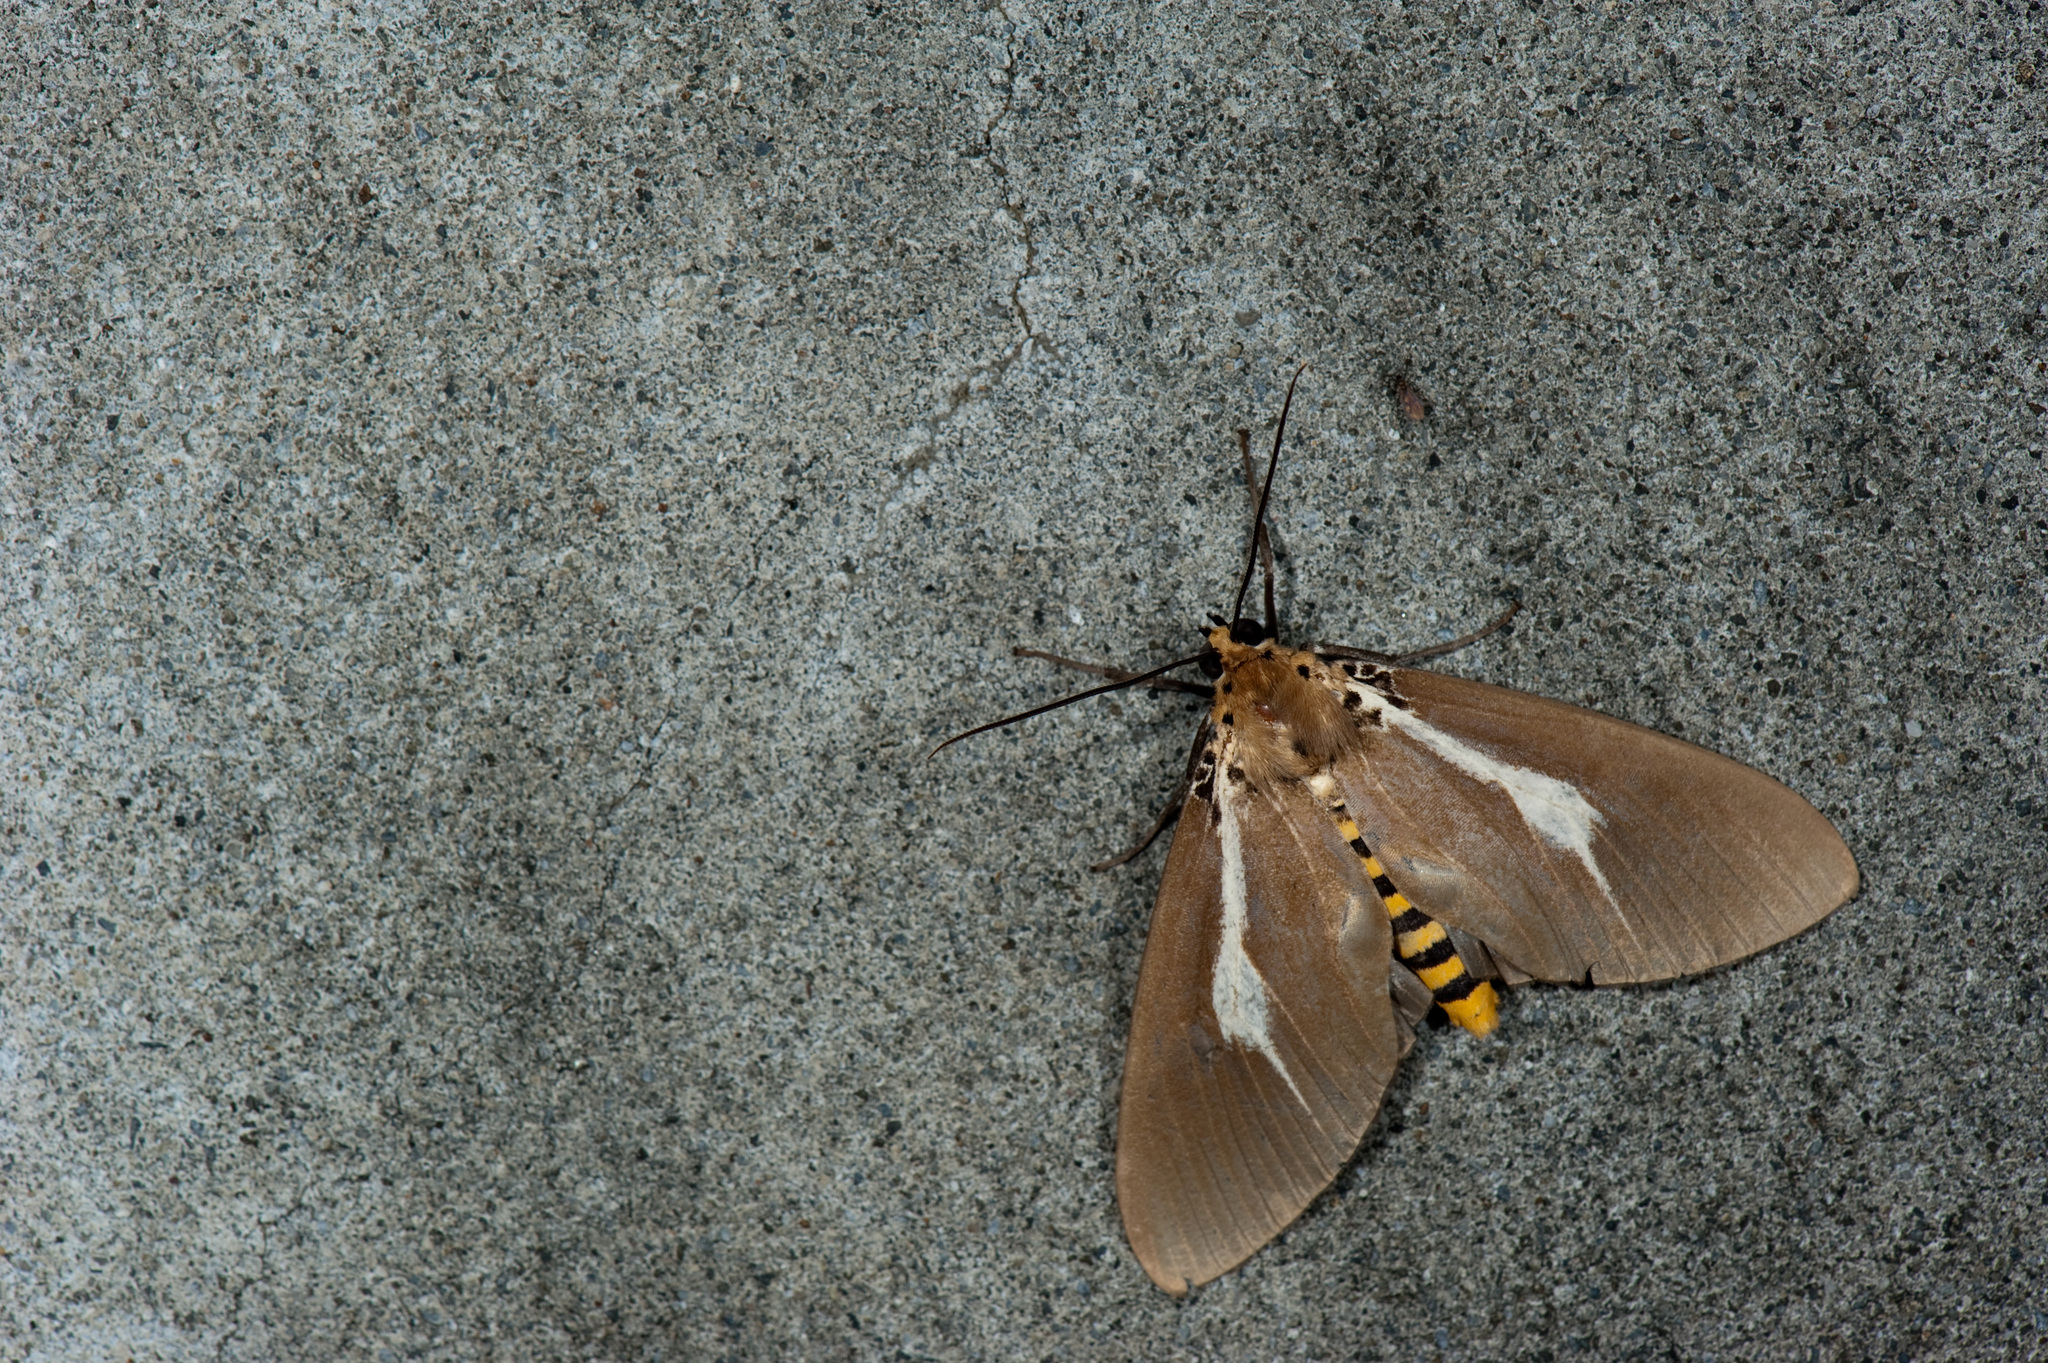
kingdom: Animalia
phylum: Arthropoda
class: Insecta
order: Lepidoptera
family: Erebidae
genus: Asota
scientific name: Asota heliconia
